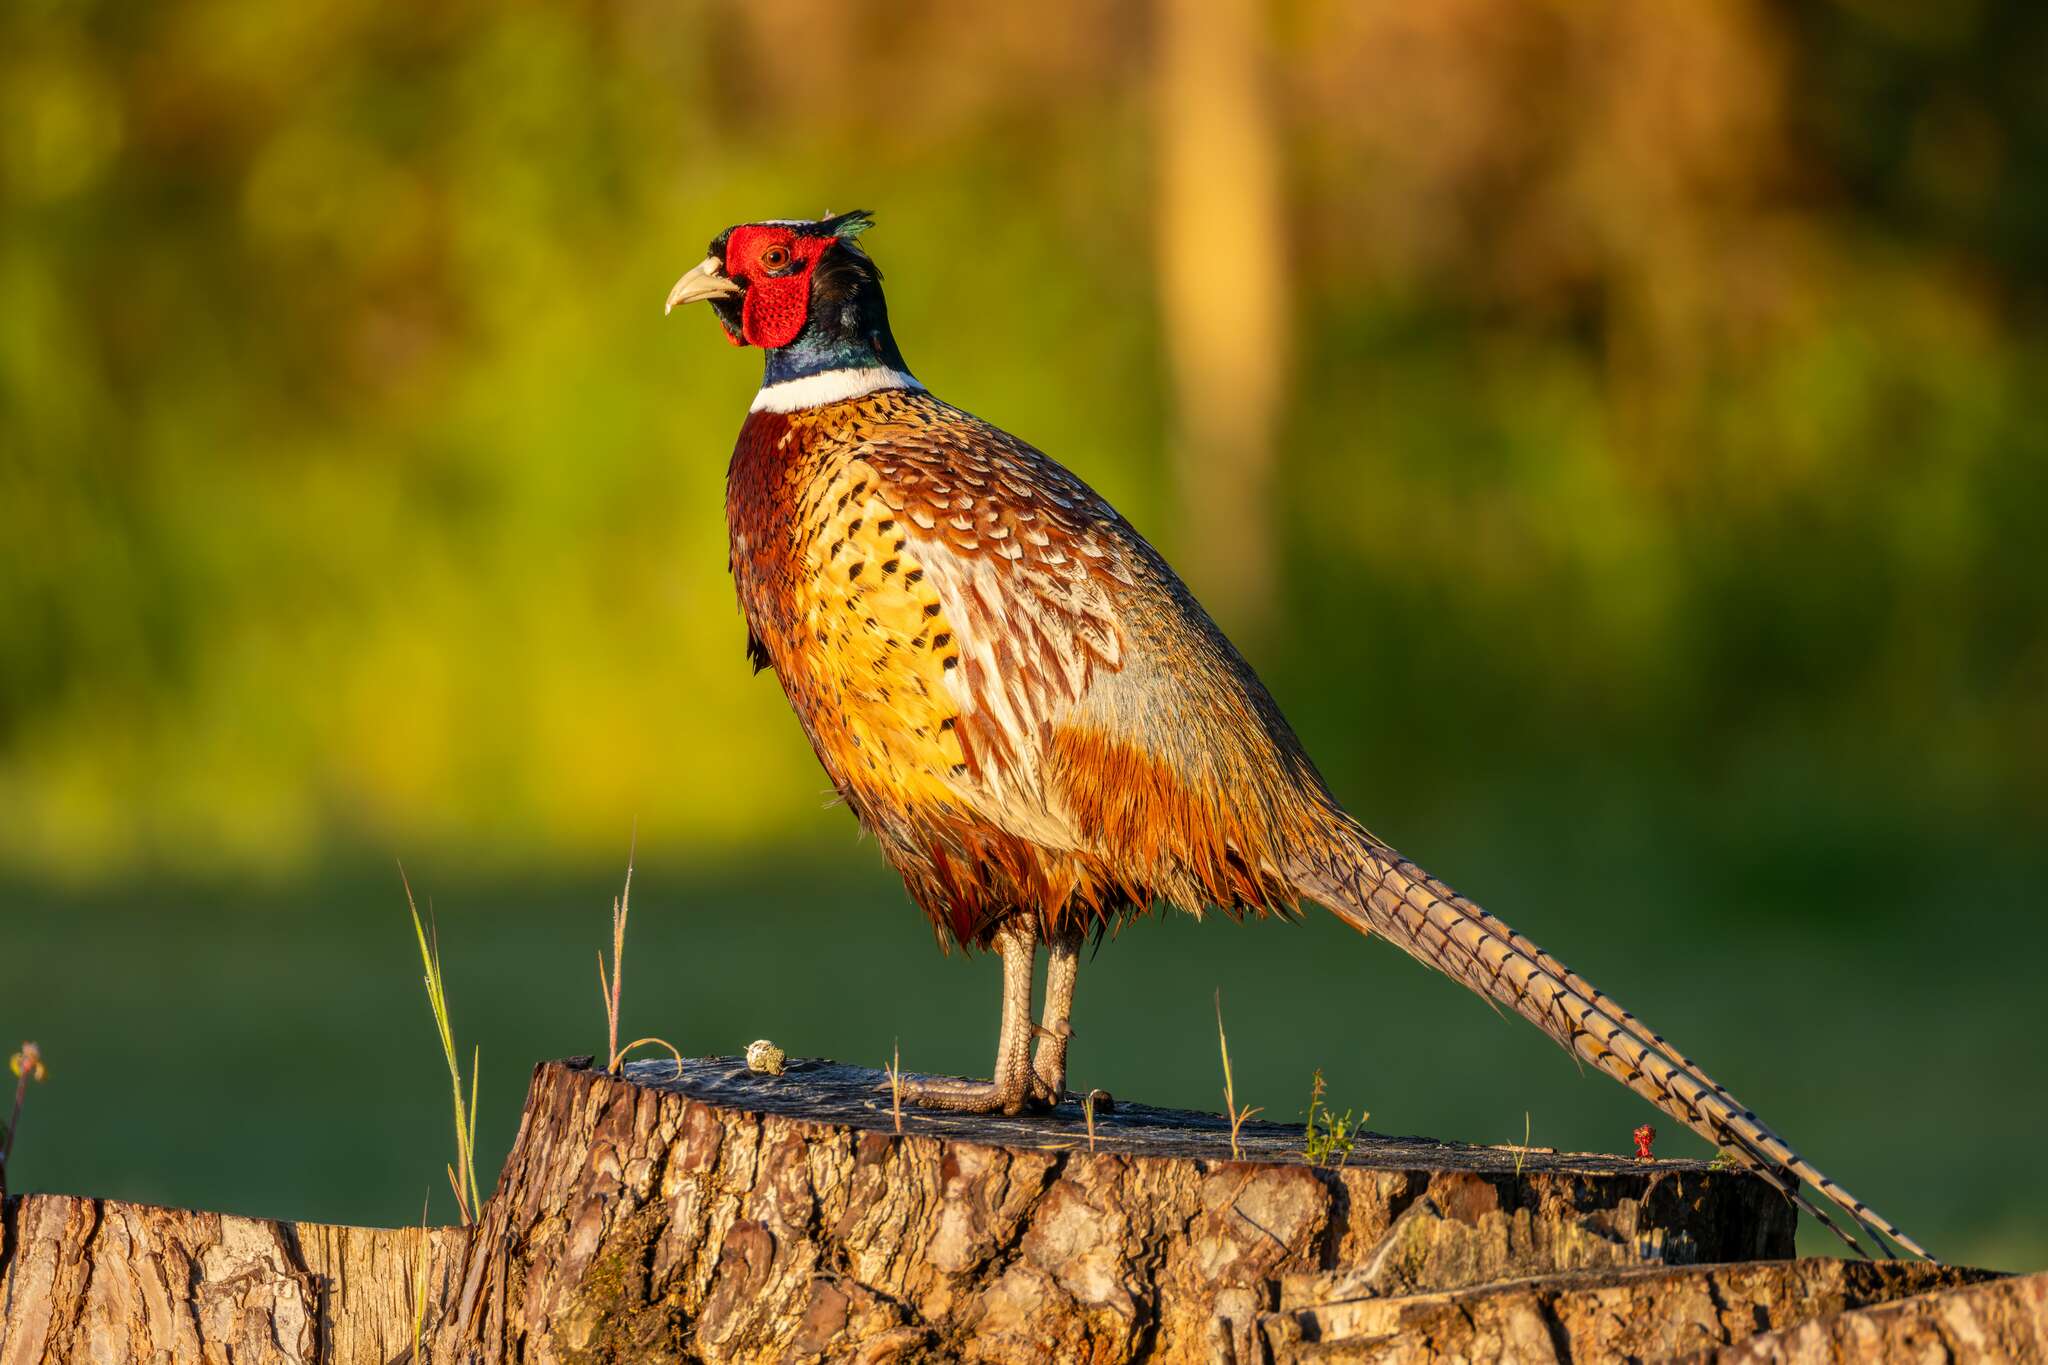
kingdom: Animalia
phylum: Chordata
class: Aves
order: Galliformes
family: Phasianidae
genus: Phasianus
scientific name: Phasianus colchicus
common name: Common pheasant
